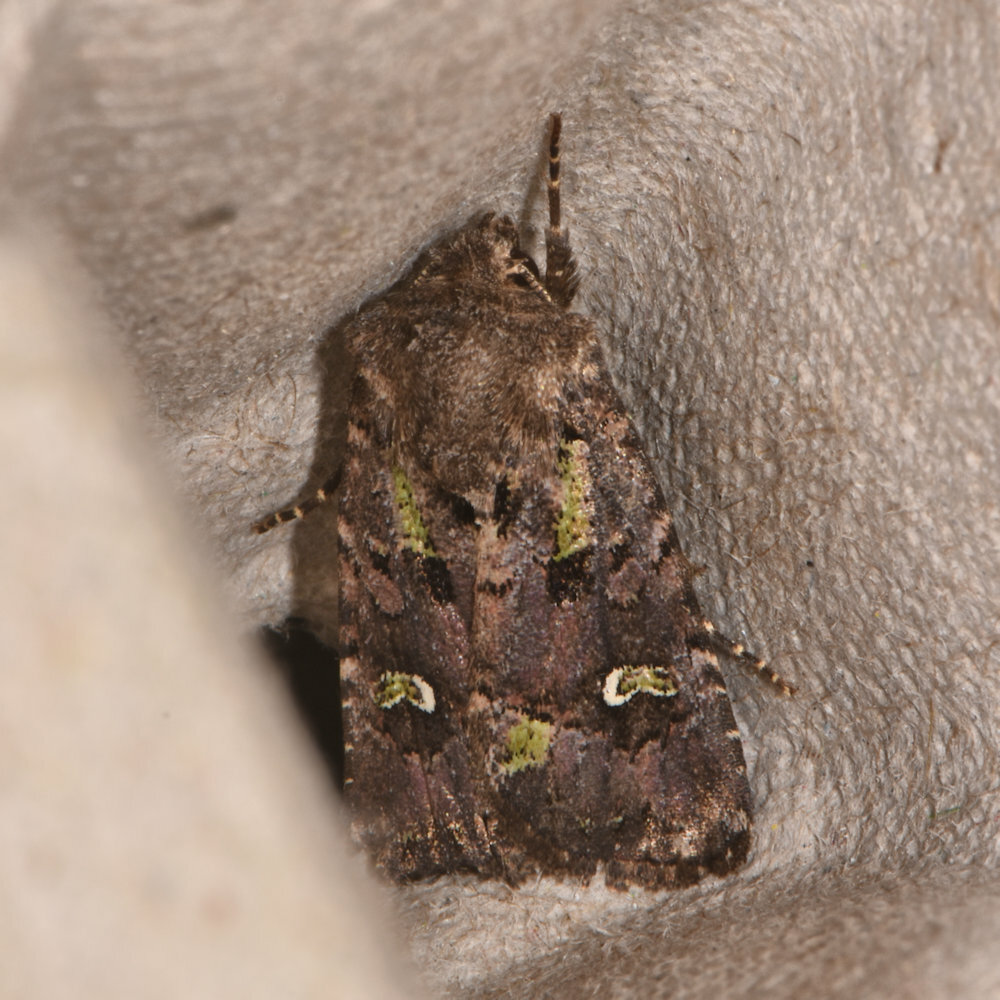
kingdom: Animalia
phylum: Arthropoda
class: Insecta
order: Lepidoptera
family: Noctuidae
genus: Lacinipolia
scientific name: Lacinipolia renigera
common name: Kidney-spotted minor
